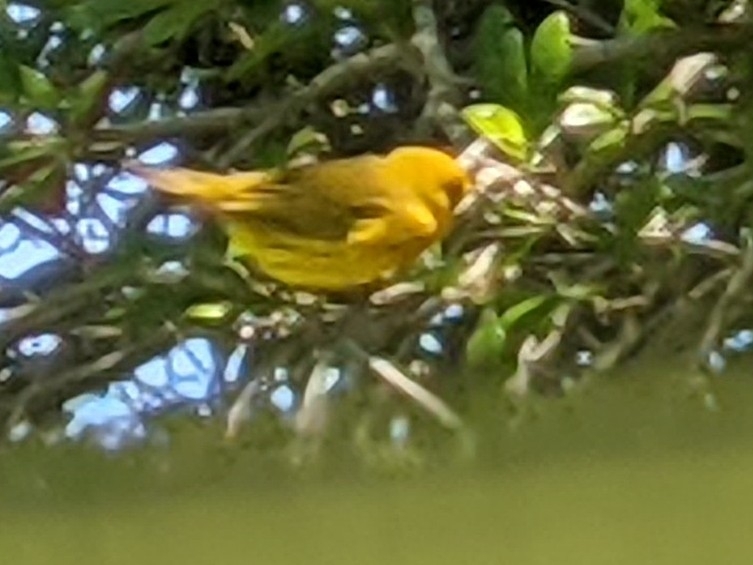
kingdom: Animalia
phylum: Chordata
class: Aves
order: Passeriformes
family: Parulidae
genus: Setophaga
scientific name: Setophaga petechia
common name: Yellow warbler
